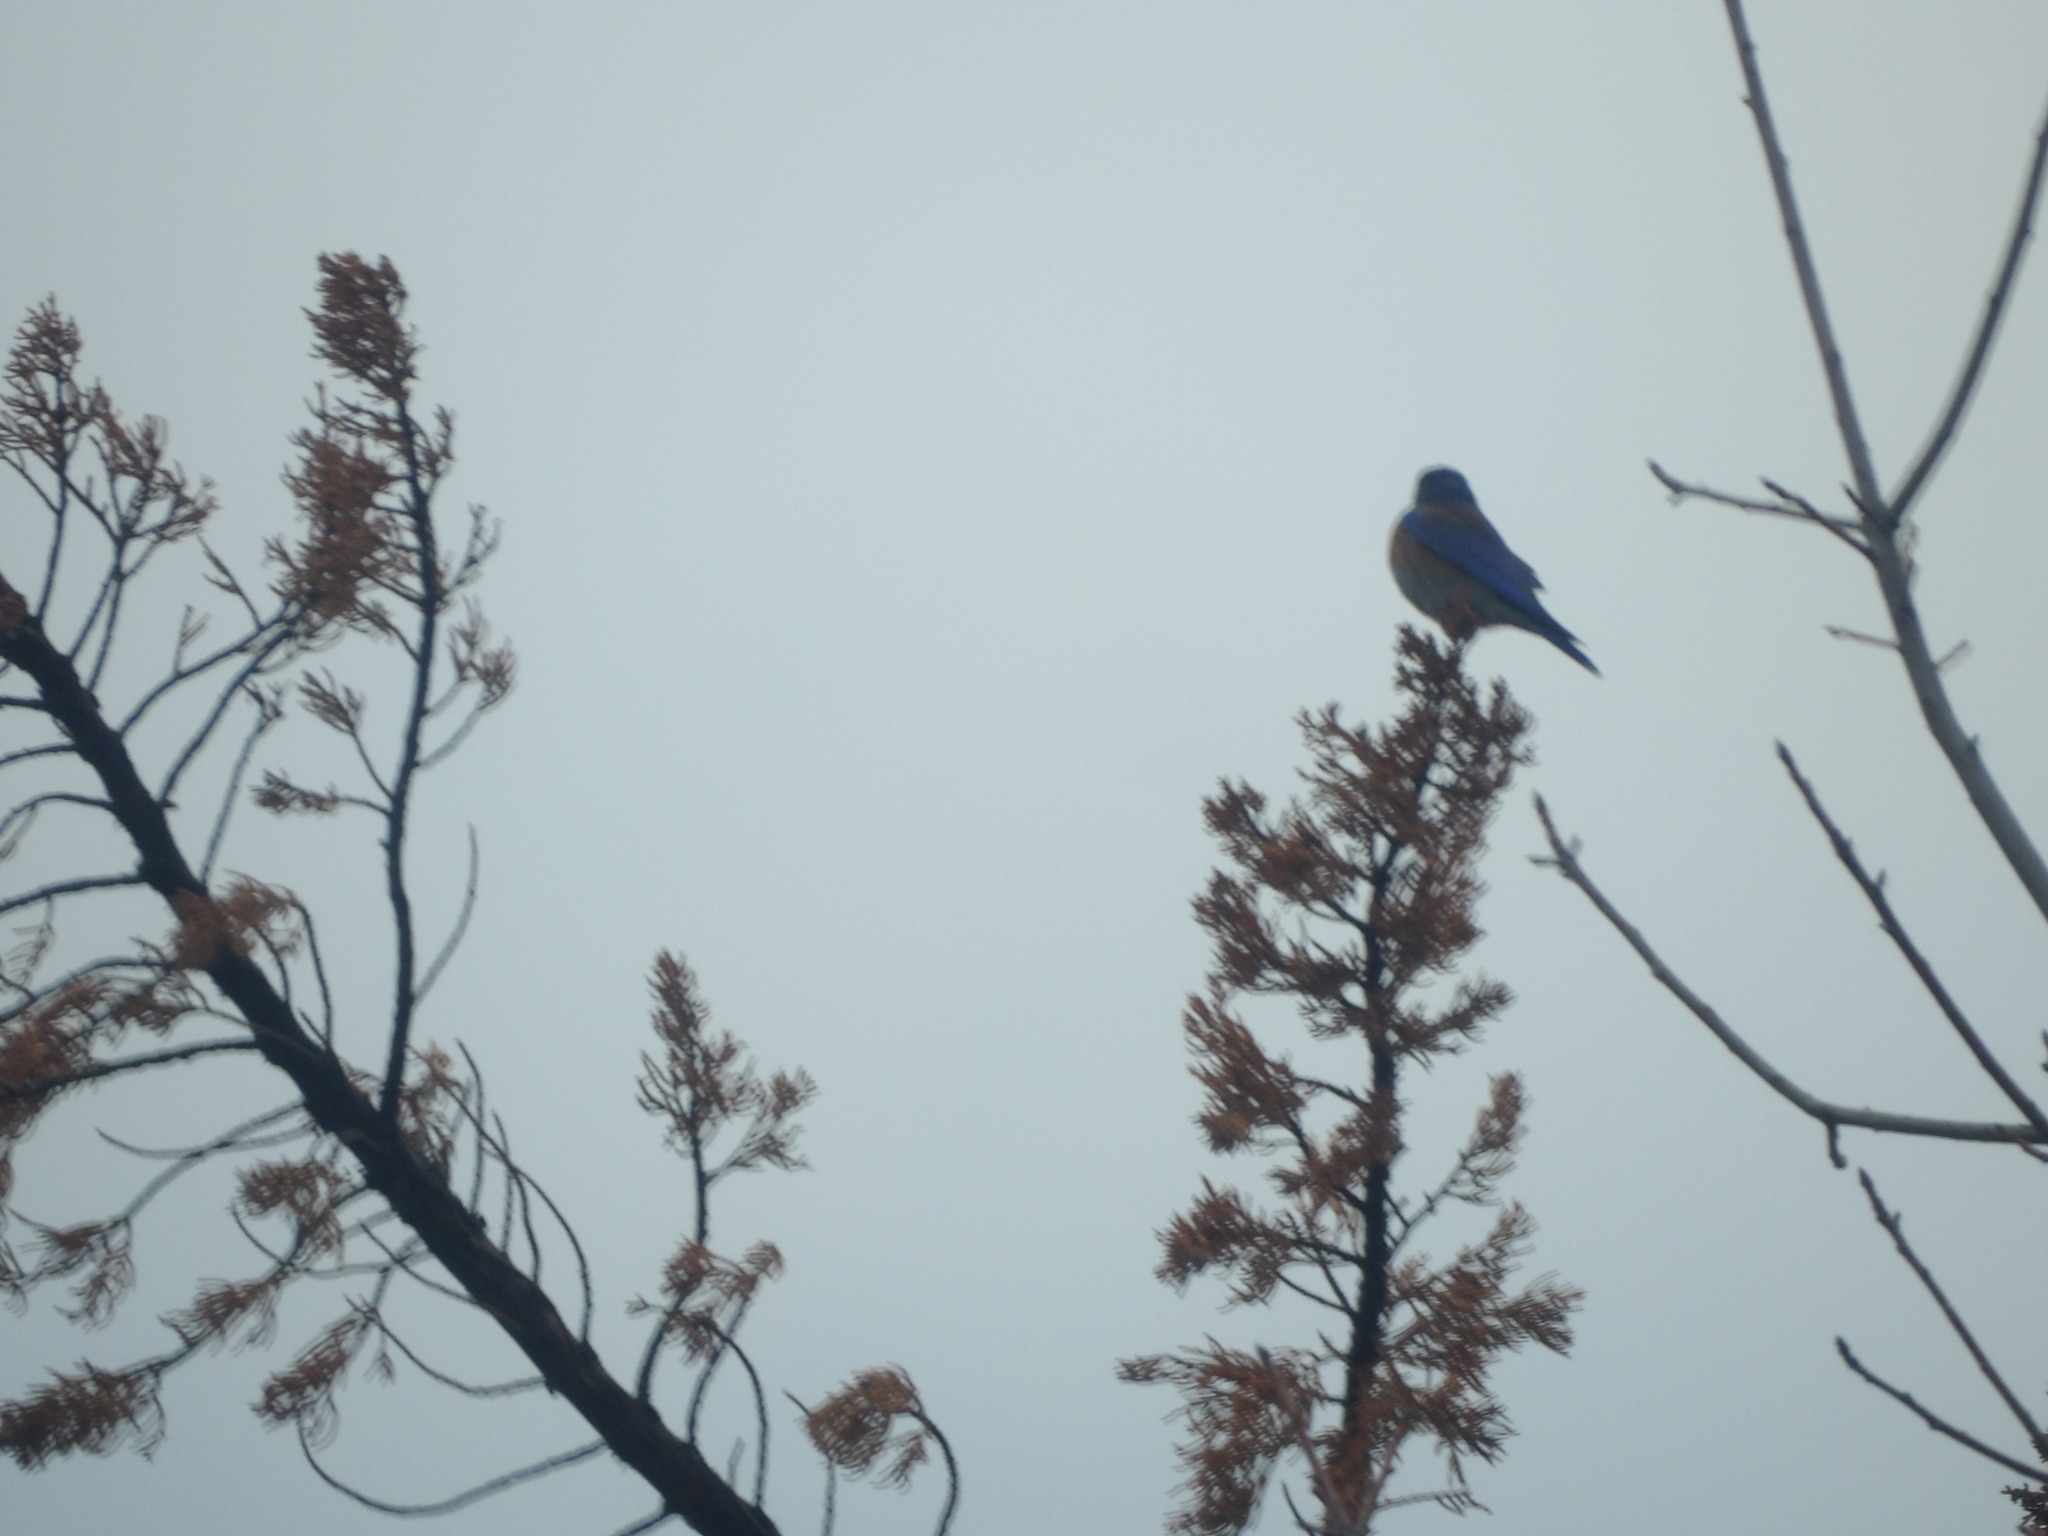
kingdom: Animalia
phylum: Chordata
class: Aves
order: Passeriformes
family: Turdidae
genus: Sialia
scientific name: Sialia mexicana
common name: Western bluebird
